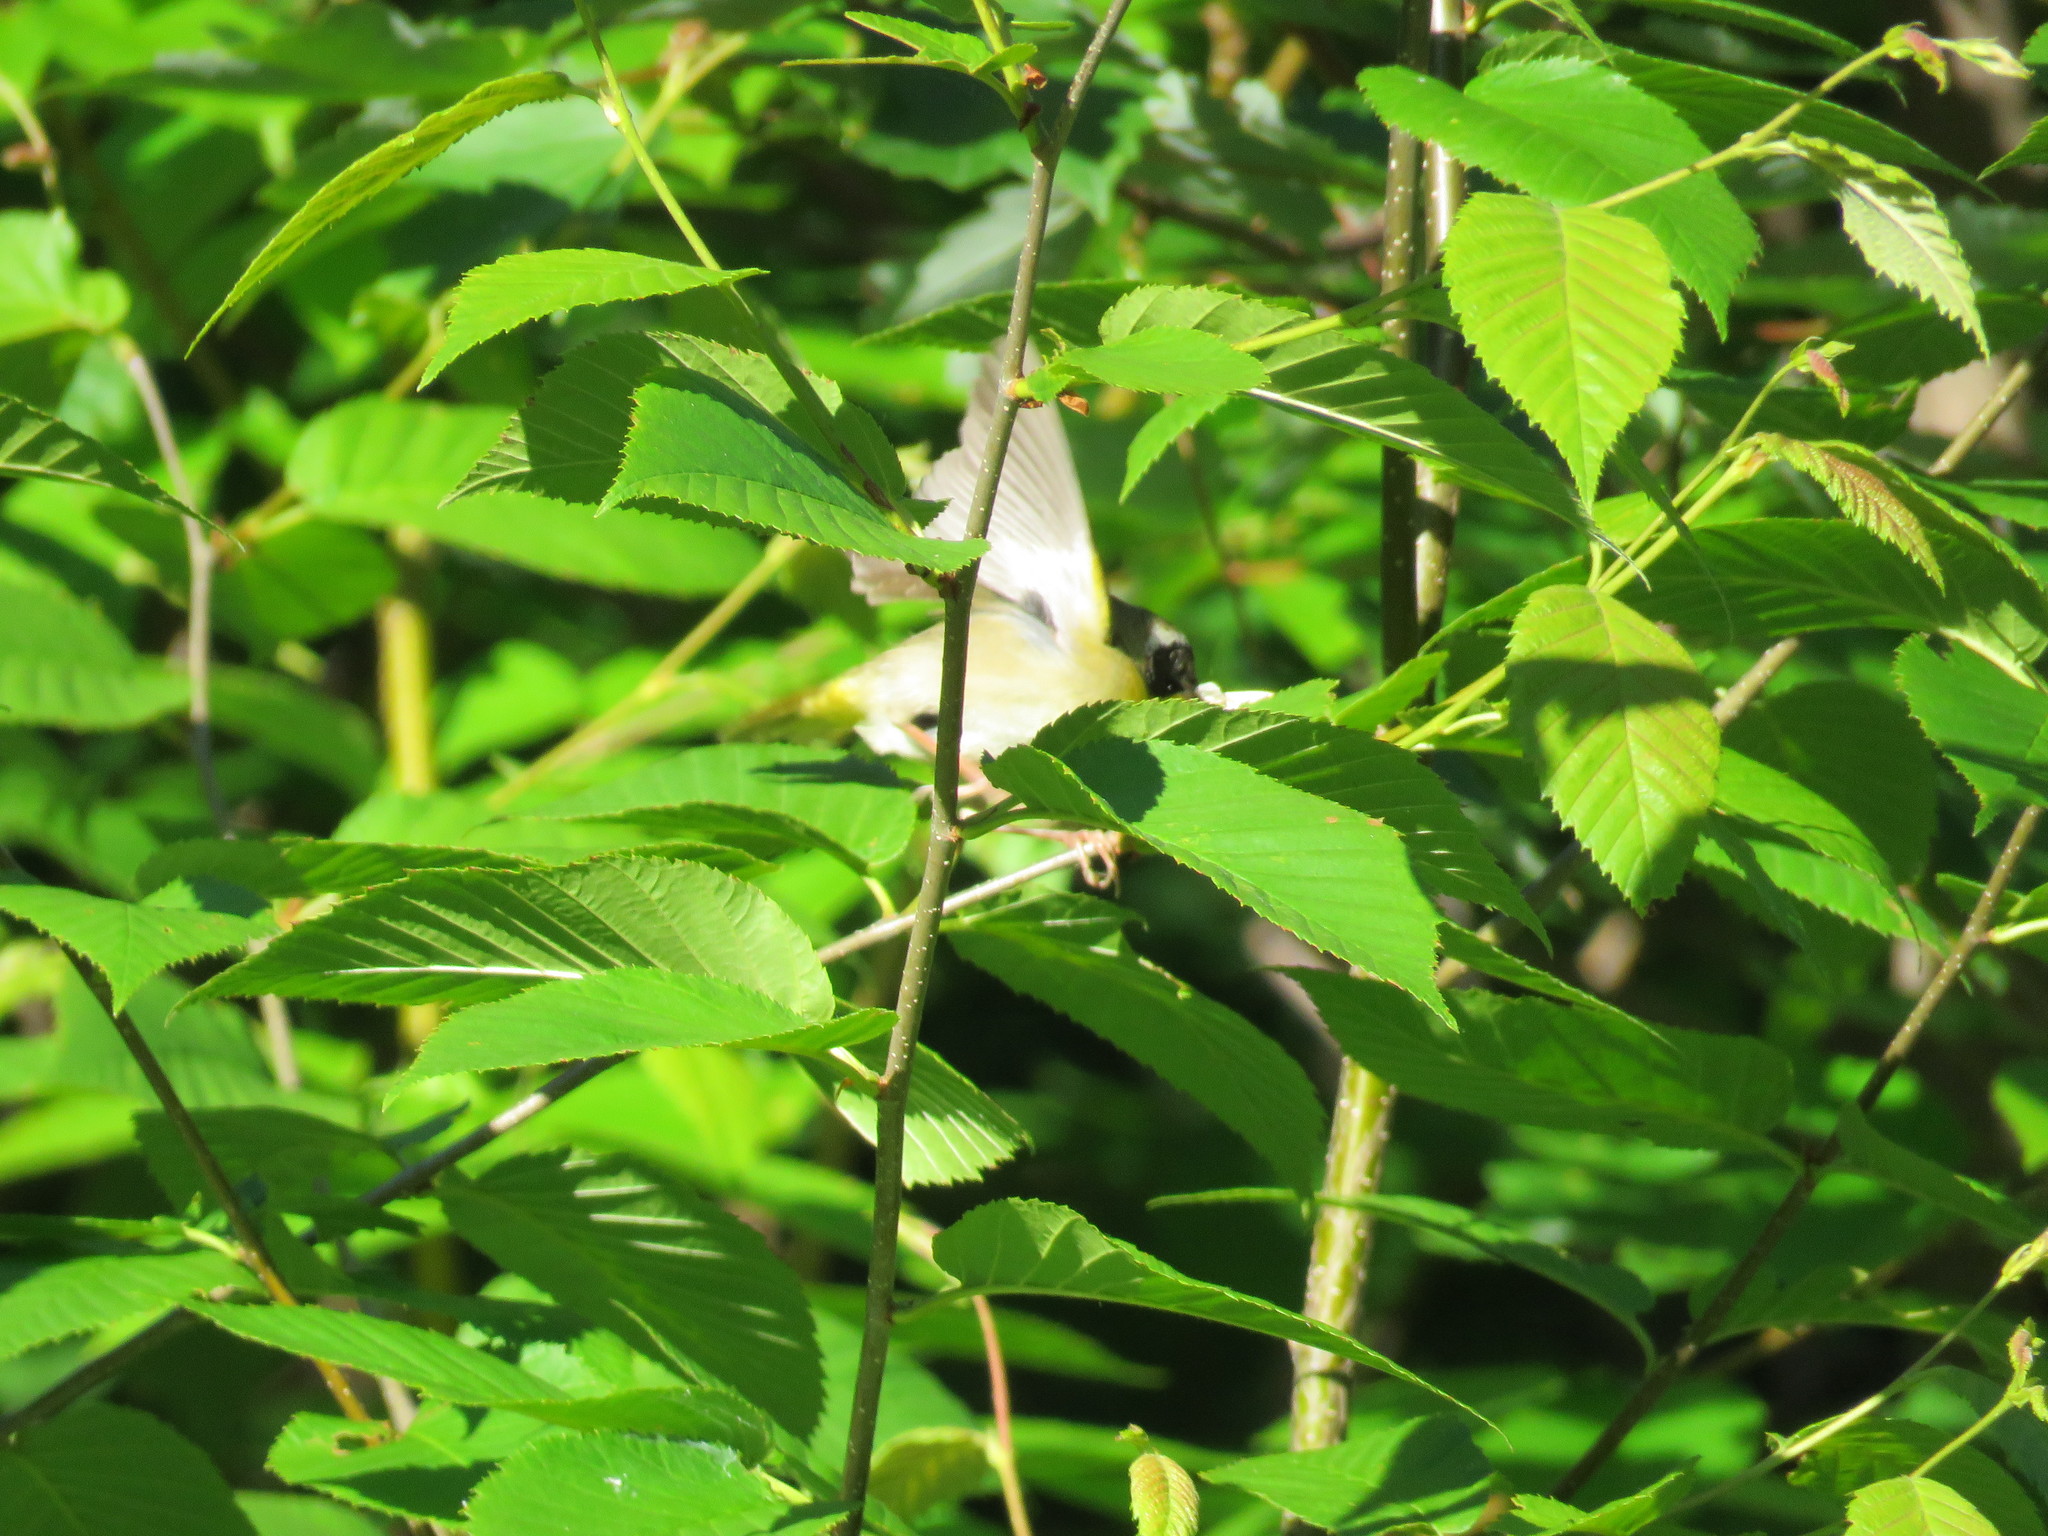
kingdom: Animalia
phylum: Chordata
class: Aves
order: Passeriformes
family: Parulidae
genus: Geothlypis
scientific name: Geothlypis trichas
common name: Common yellowthroat
